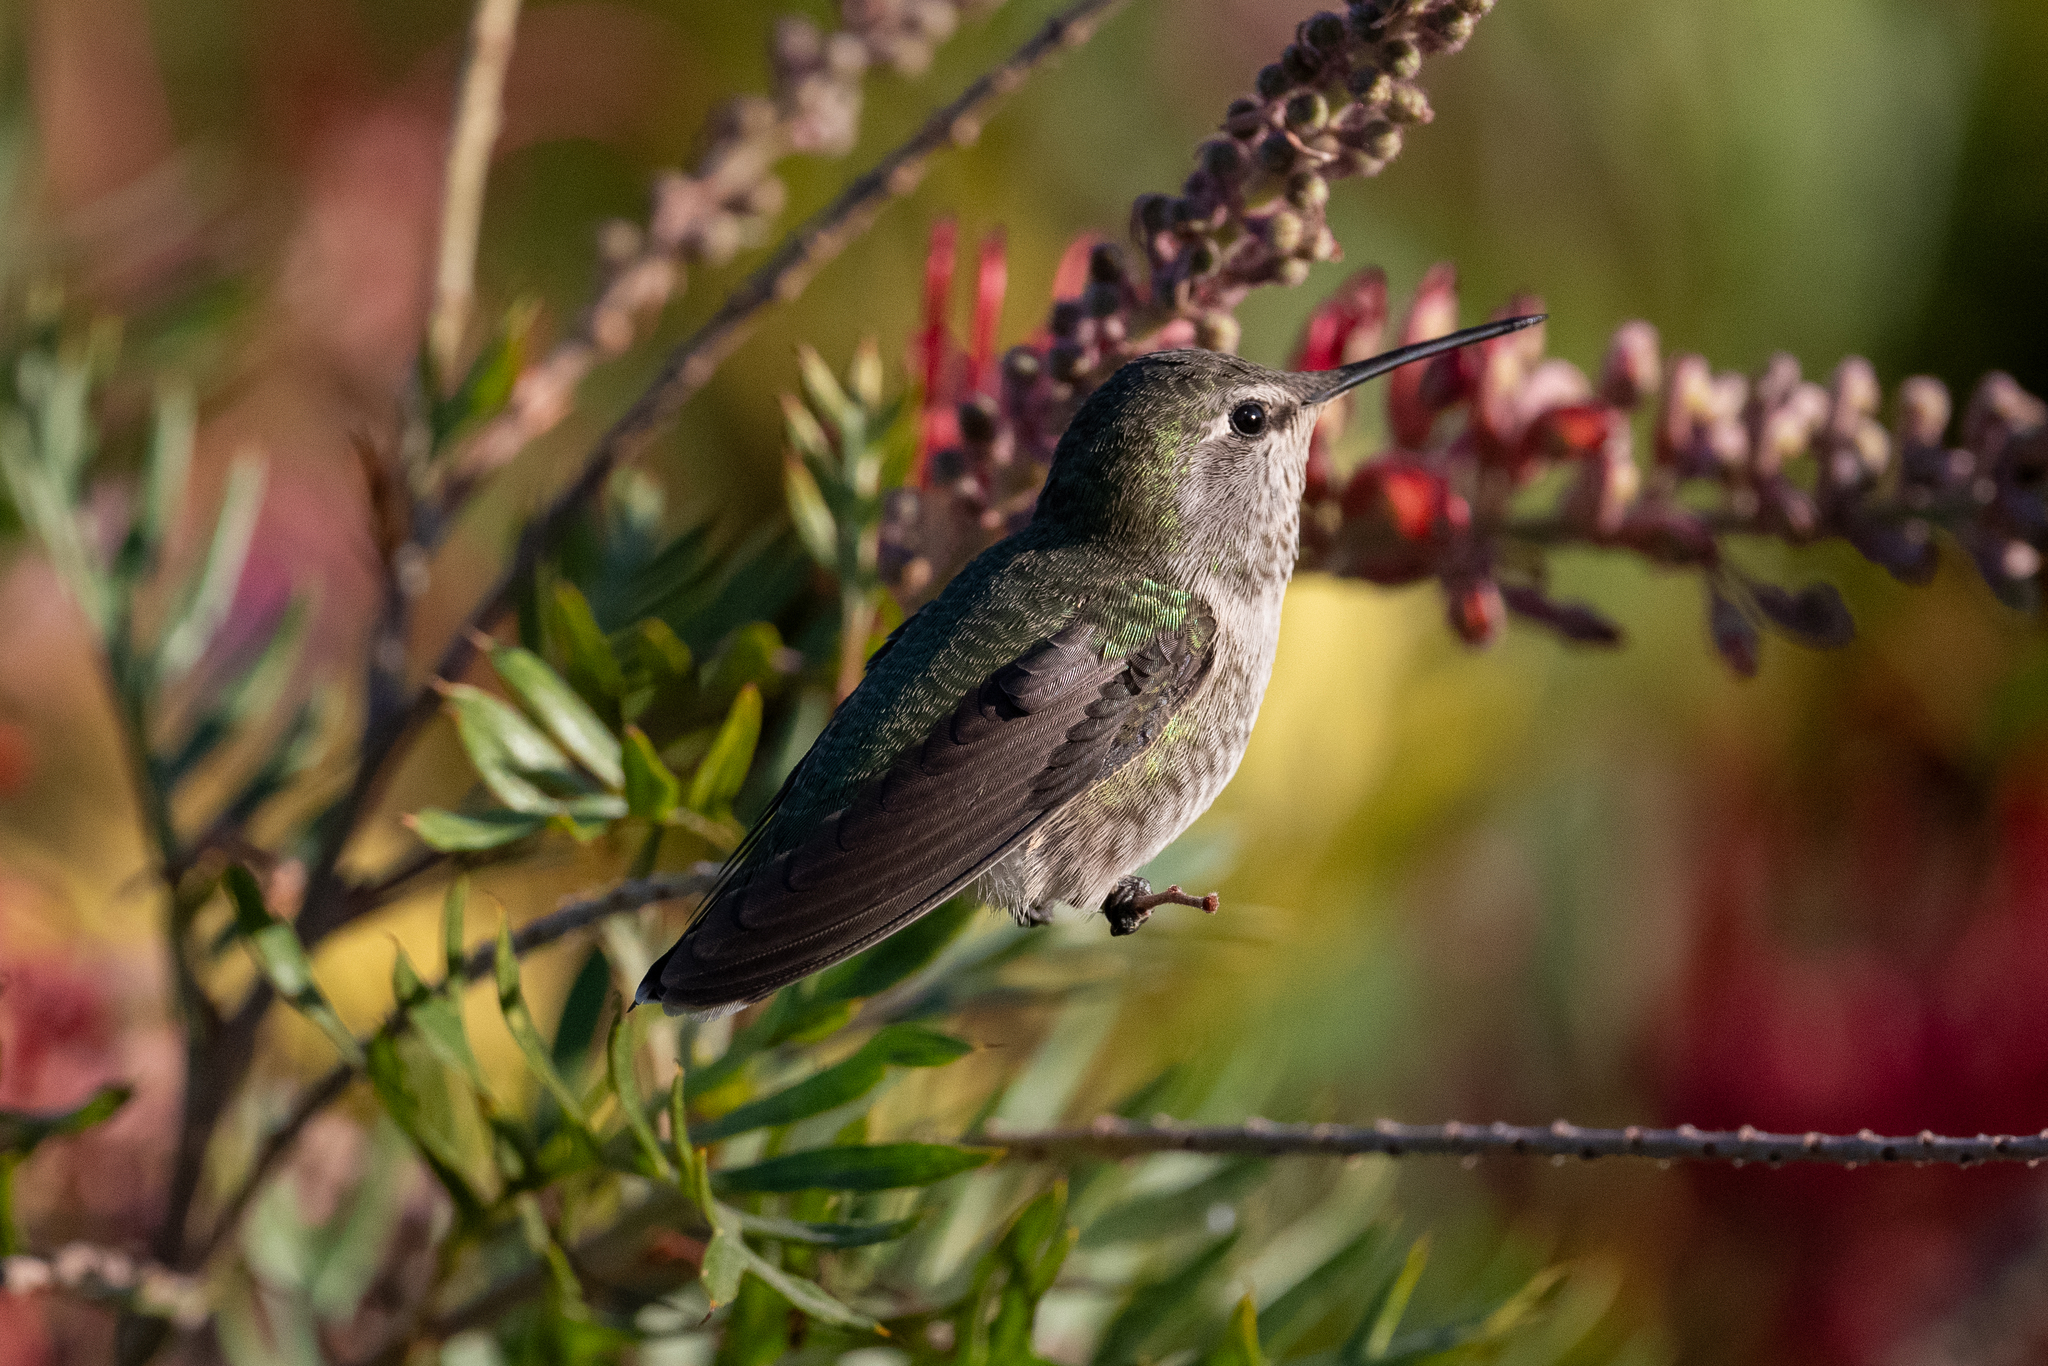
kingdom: Animalia
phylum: Chordata
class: Aves
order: Apodiformes
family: Trochilidae
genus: Calypte
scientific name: Calypte anna
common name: Anna's hummingbird
